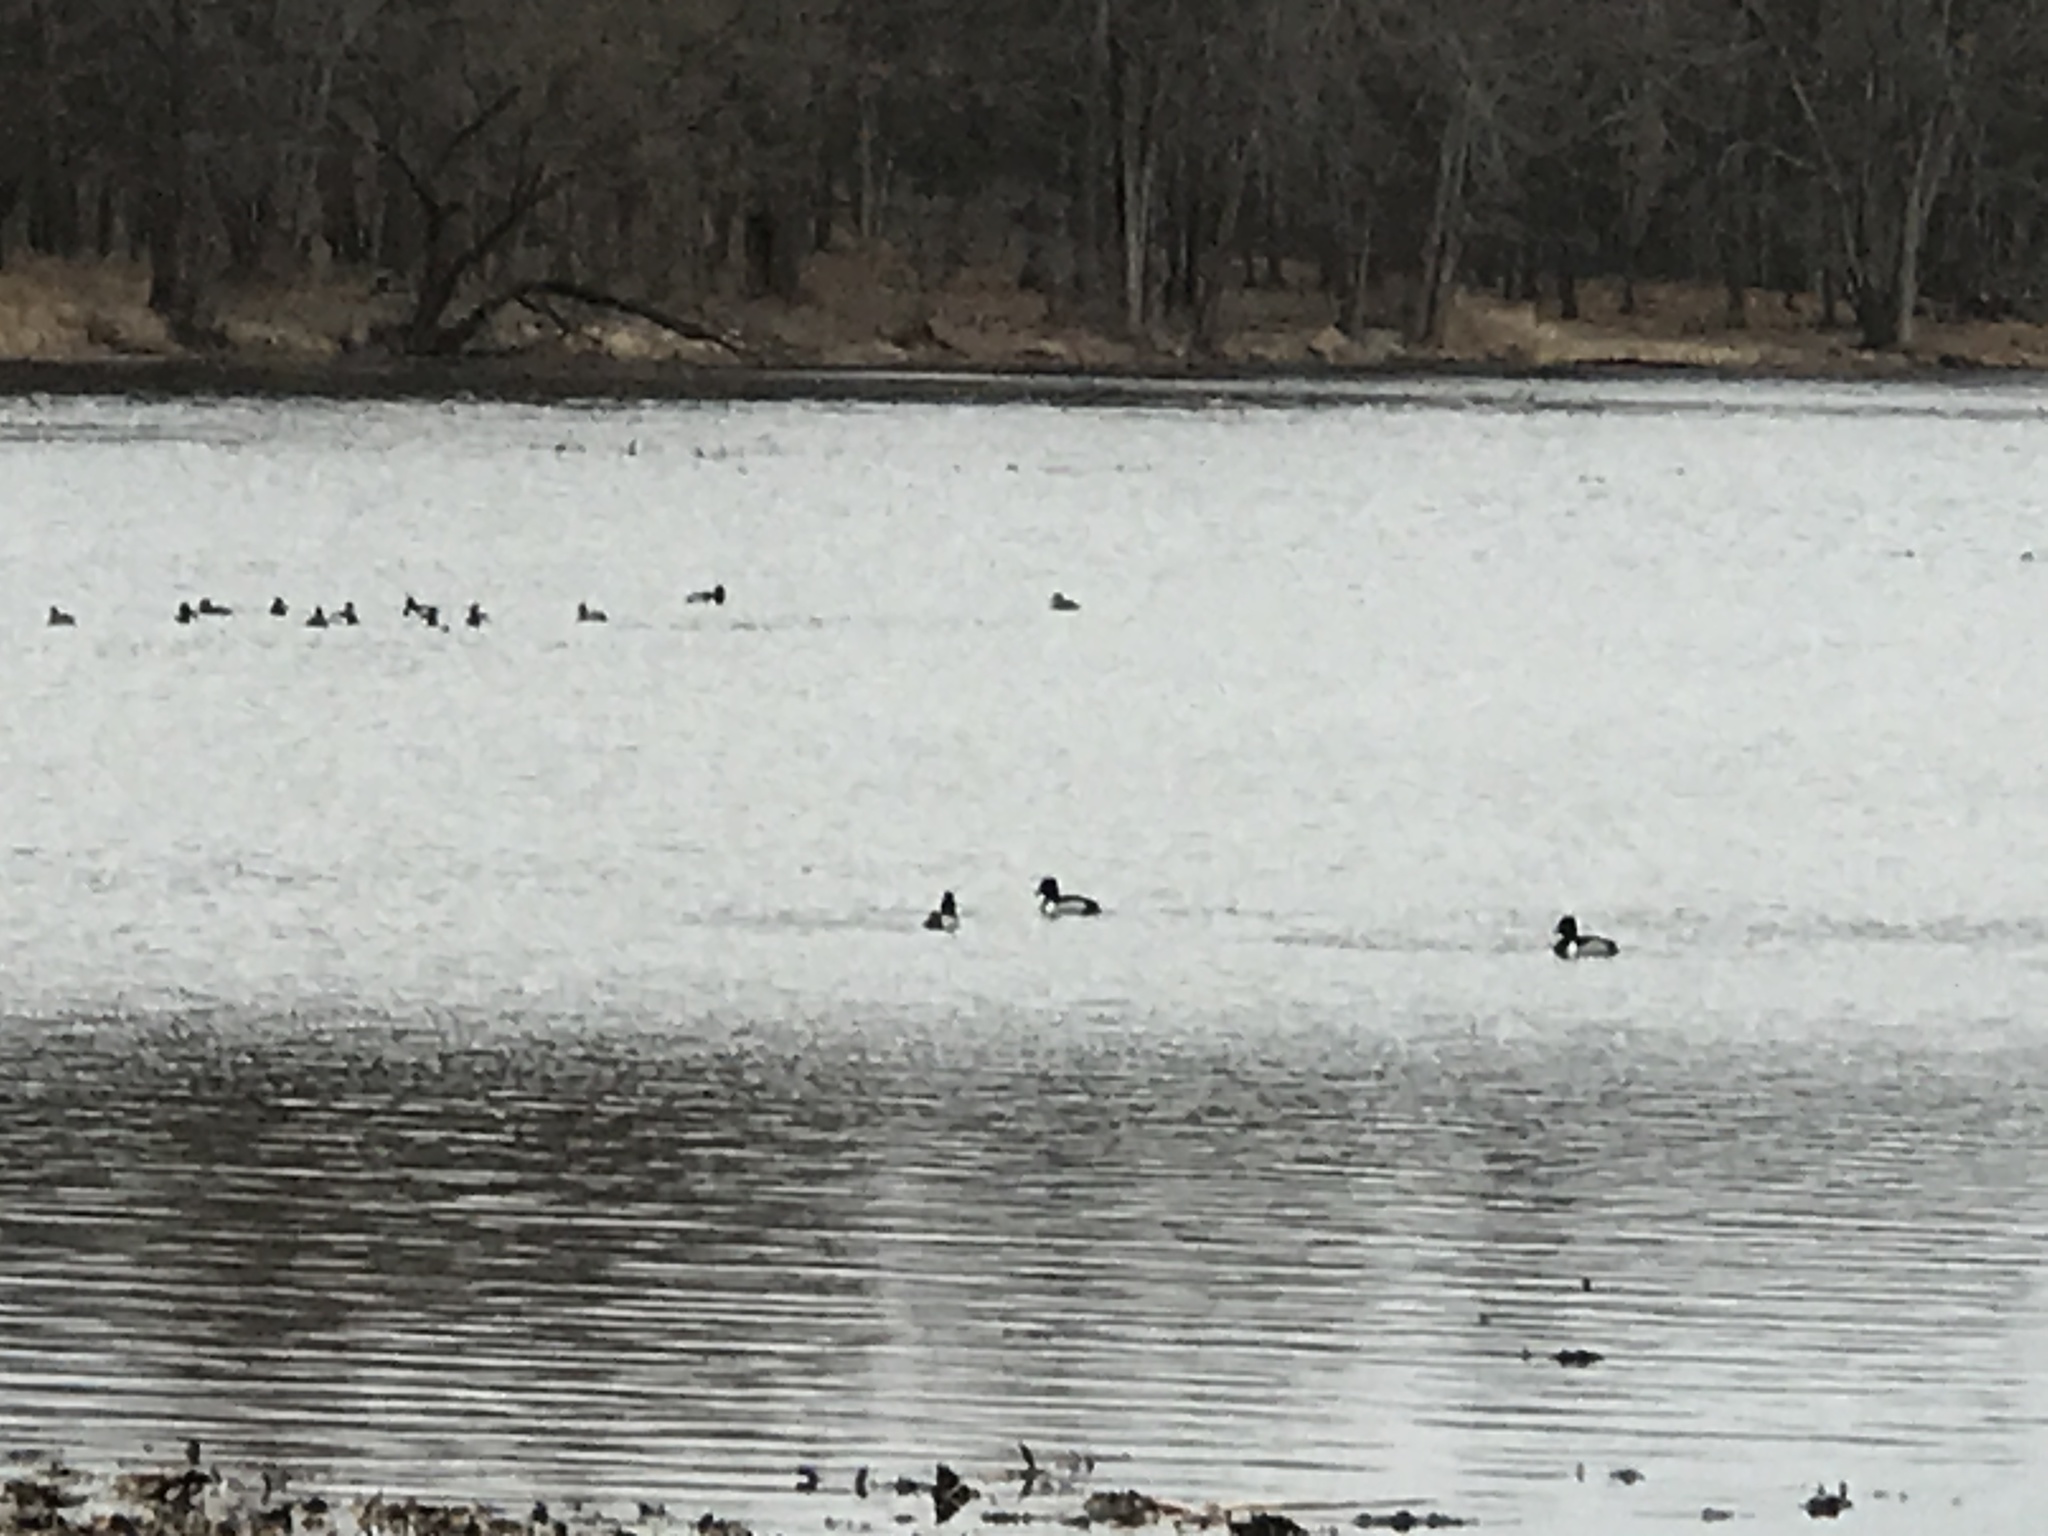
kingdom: Animalia
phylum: Chordata
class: Aves
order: Anseriformes
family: Anatidae
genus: Aythya
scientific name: Aythya collaris
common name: Ring-necked duck
